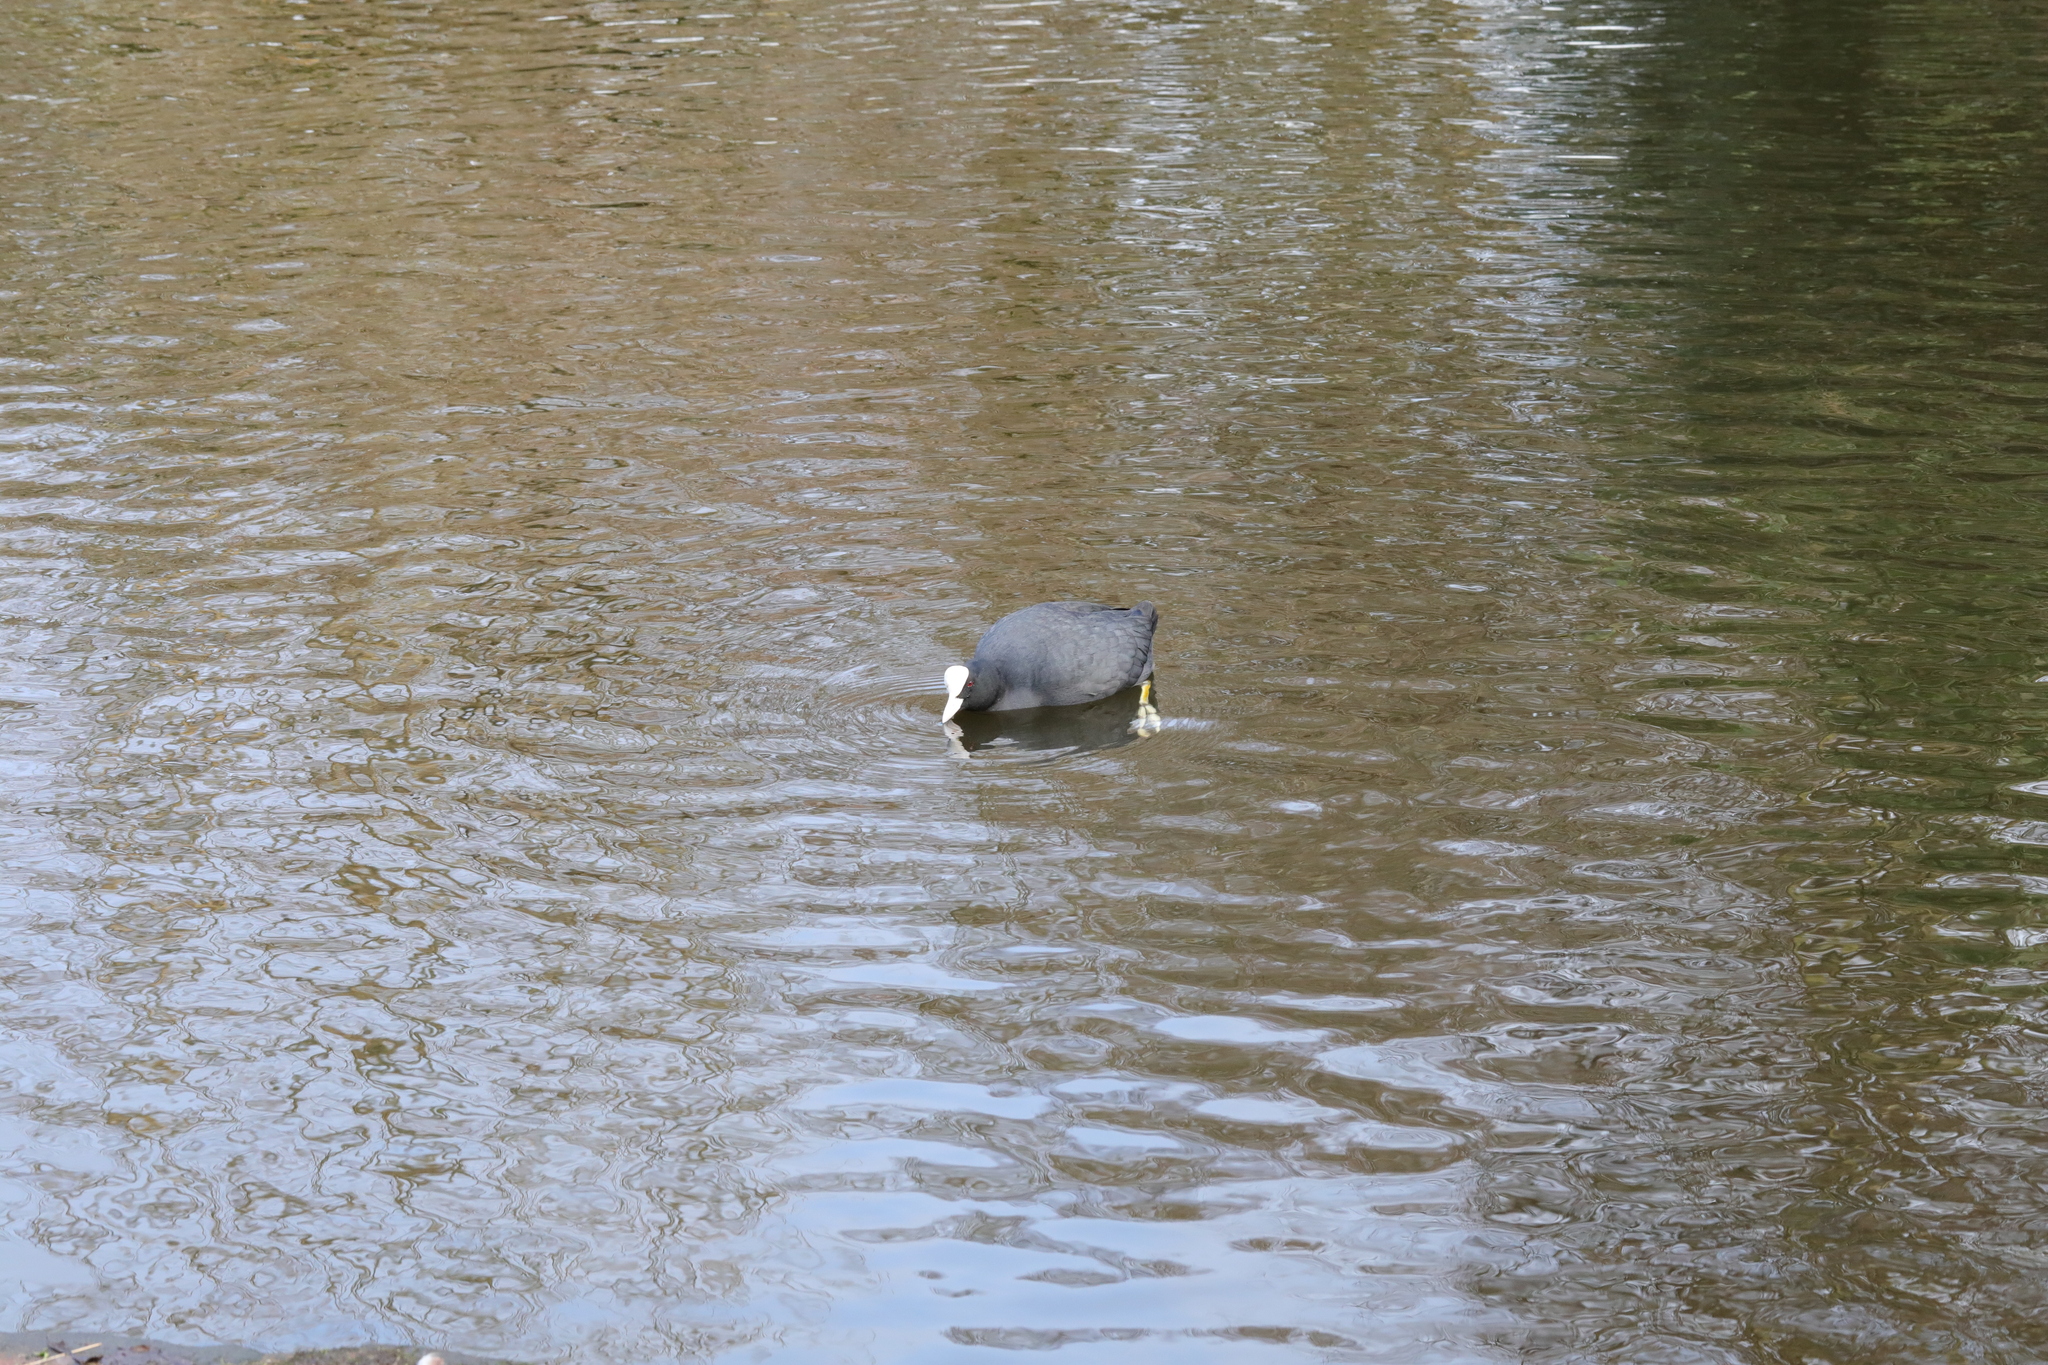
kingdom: Animalia
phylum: Chordata
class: Aves
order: Gruiformes
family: Rallidae
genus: Fulica
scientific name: Fulica atra
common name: Eurasian coot
